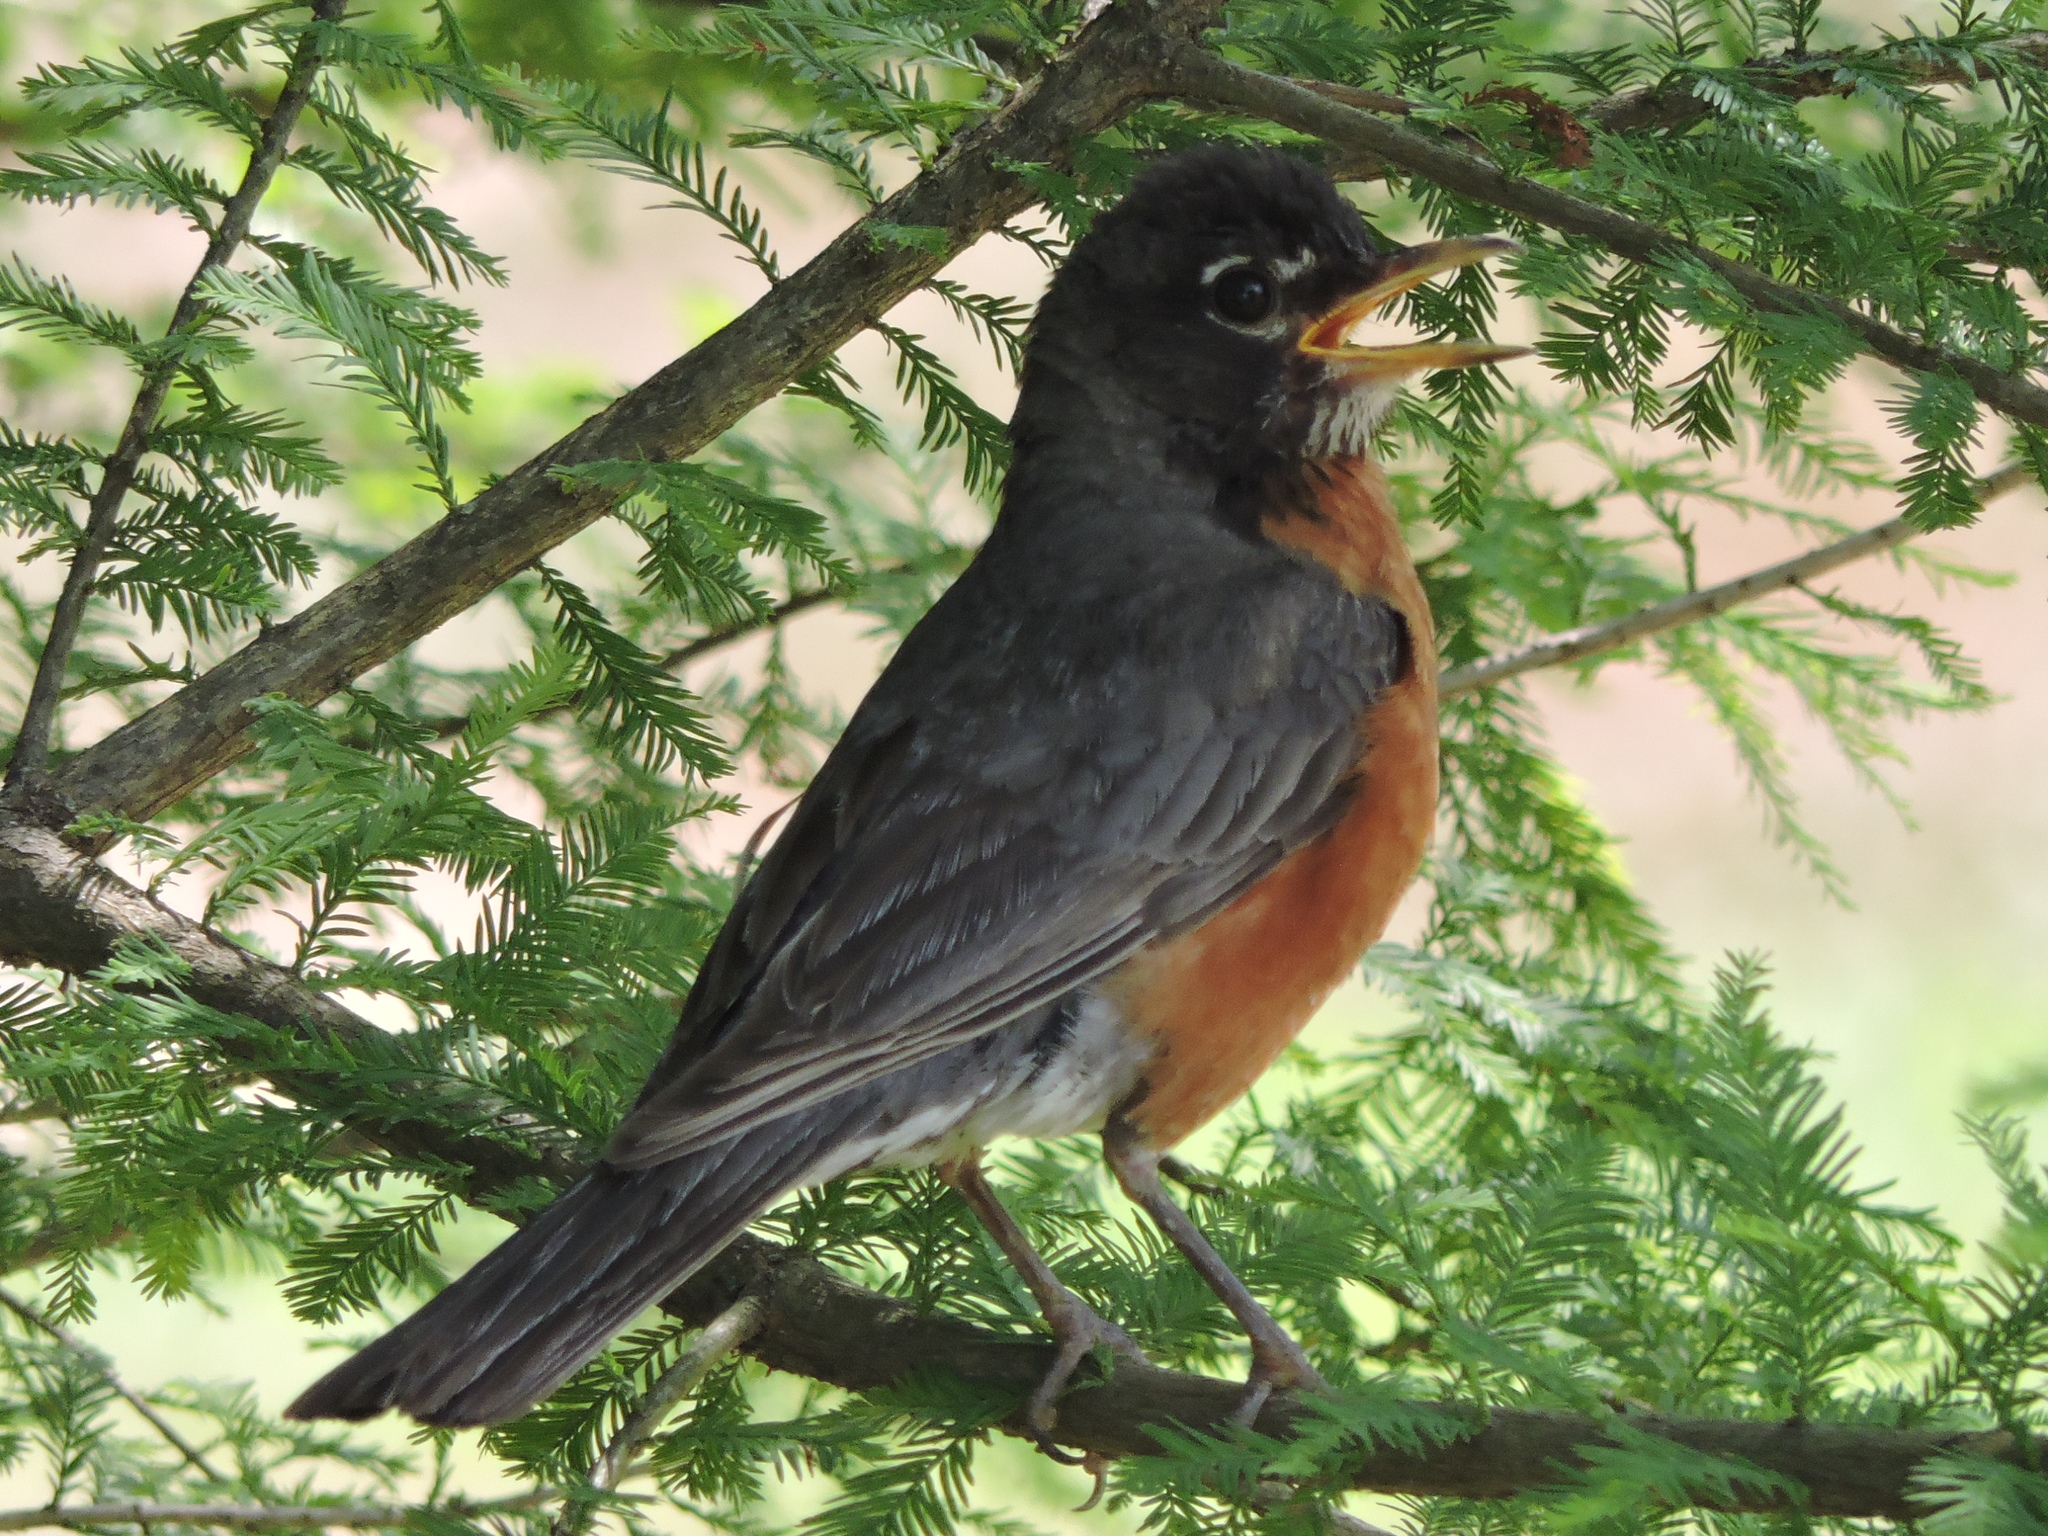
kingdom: Animalia
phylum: Chordata
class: Aves
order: Passeriformes
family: Turdidae
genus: Turdus
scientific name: Turdus migratorius
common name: American robin
